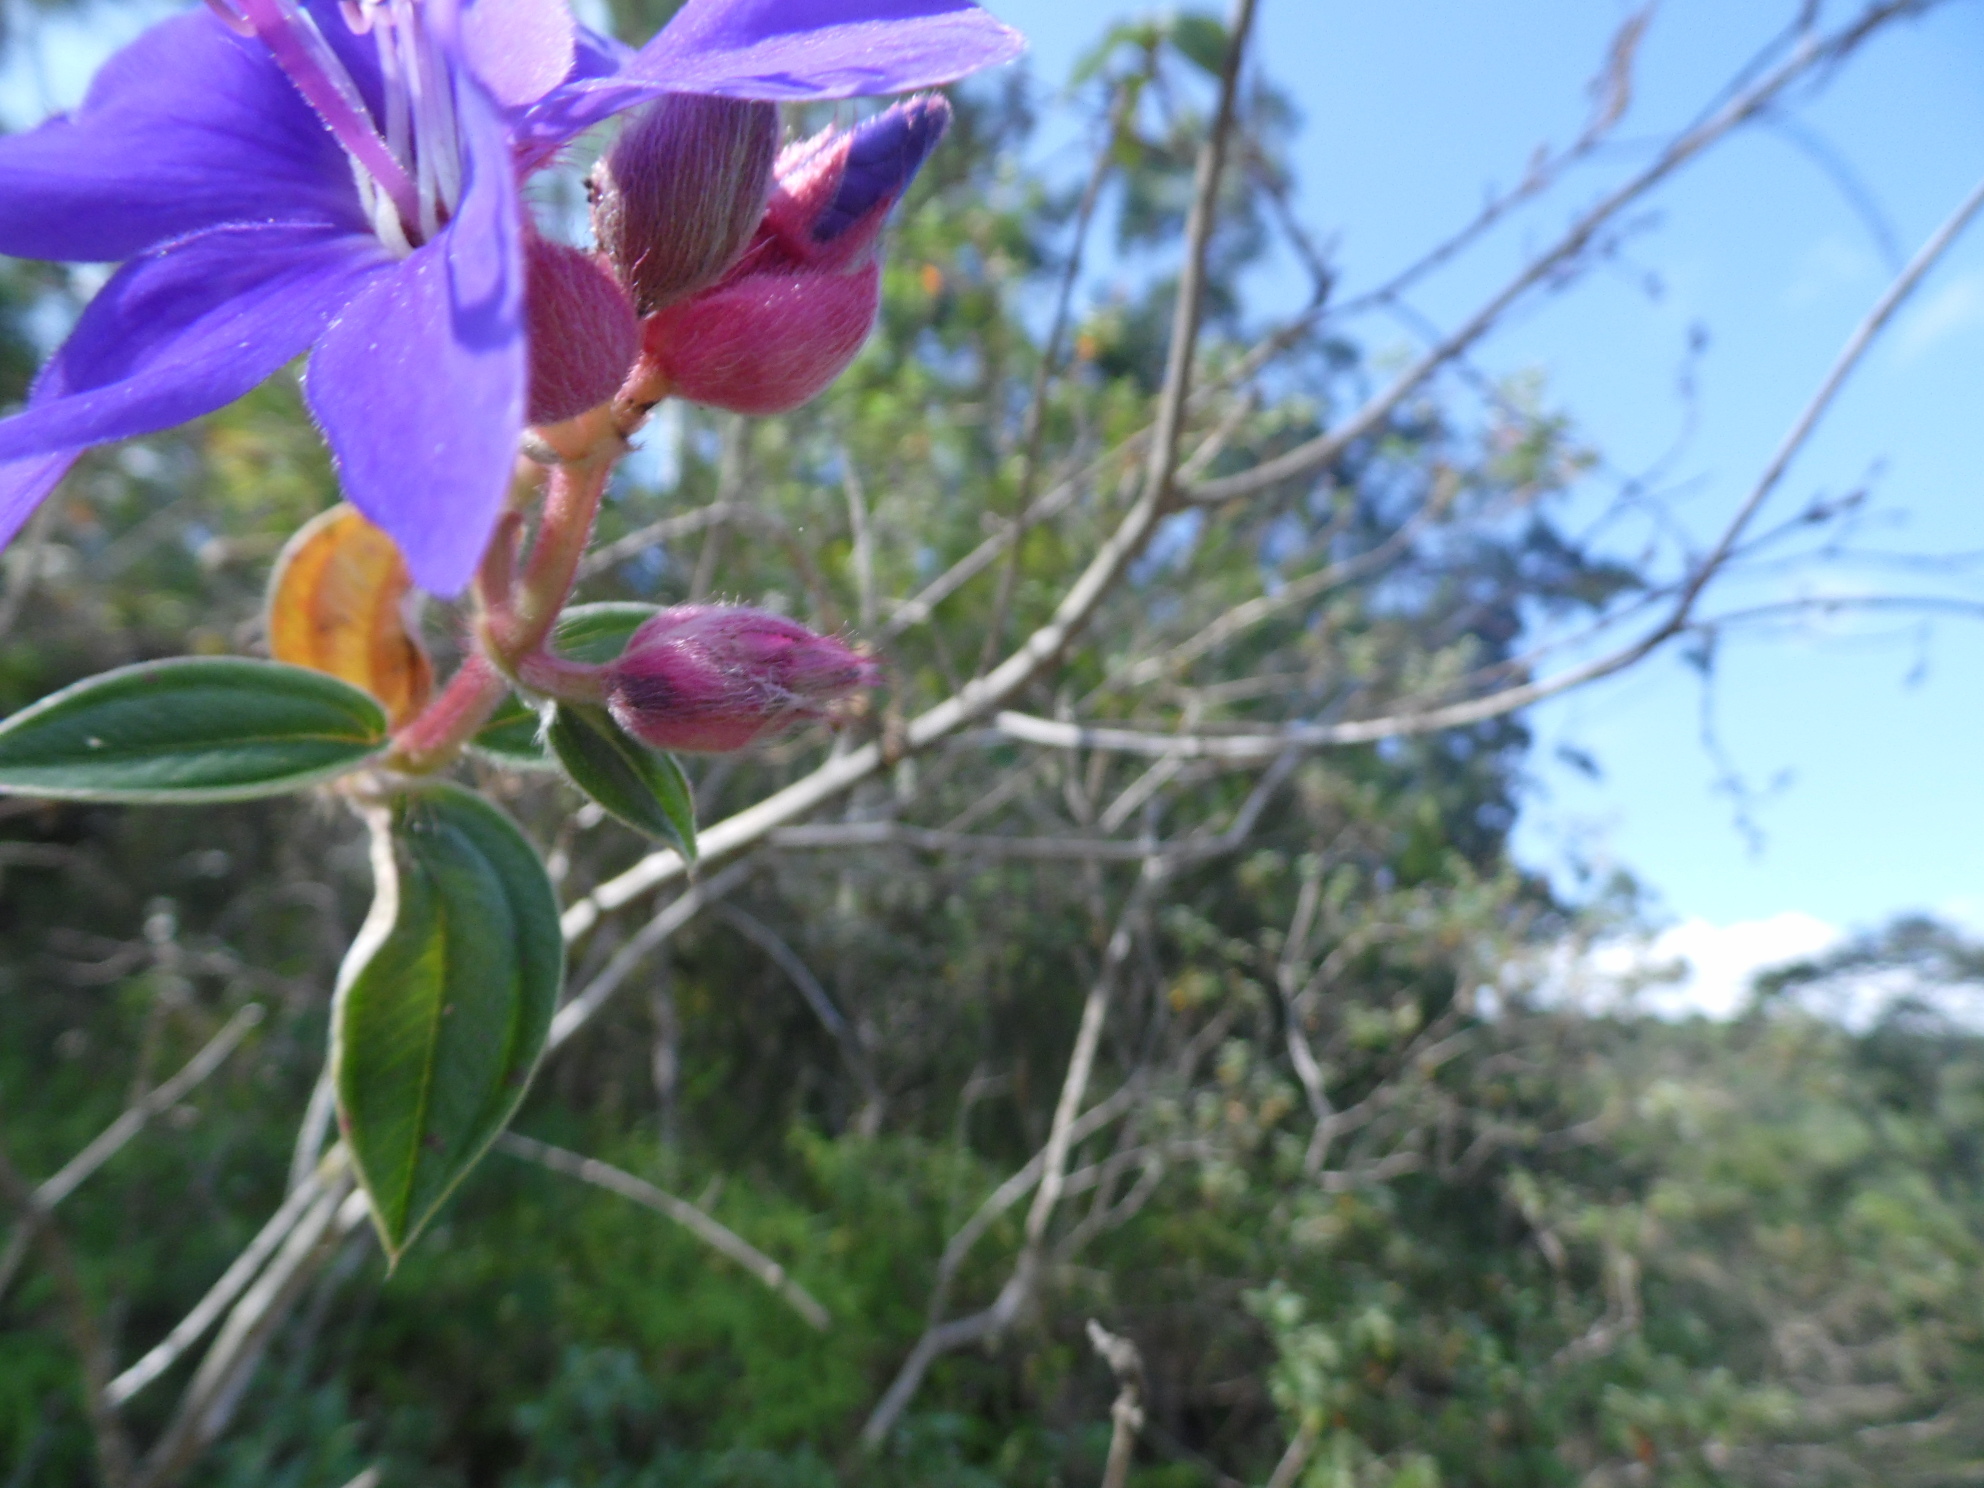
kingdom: Plantae
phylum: Tracheophyta
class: Magnoliopsida
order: Myrtales
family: Melastomataceae
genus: Pleroma
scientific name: Pleroma urvilleanum
